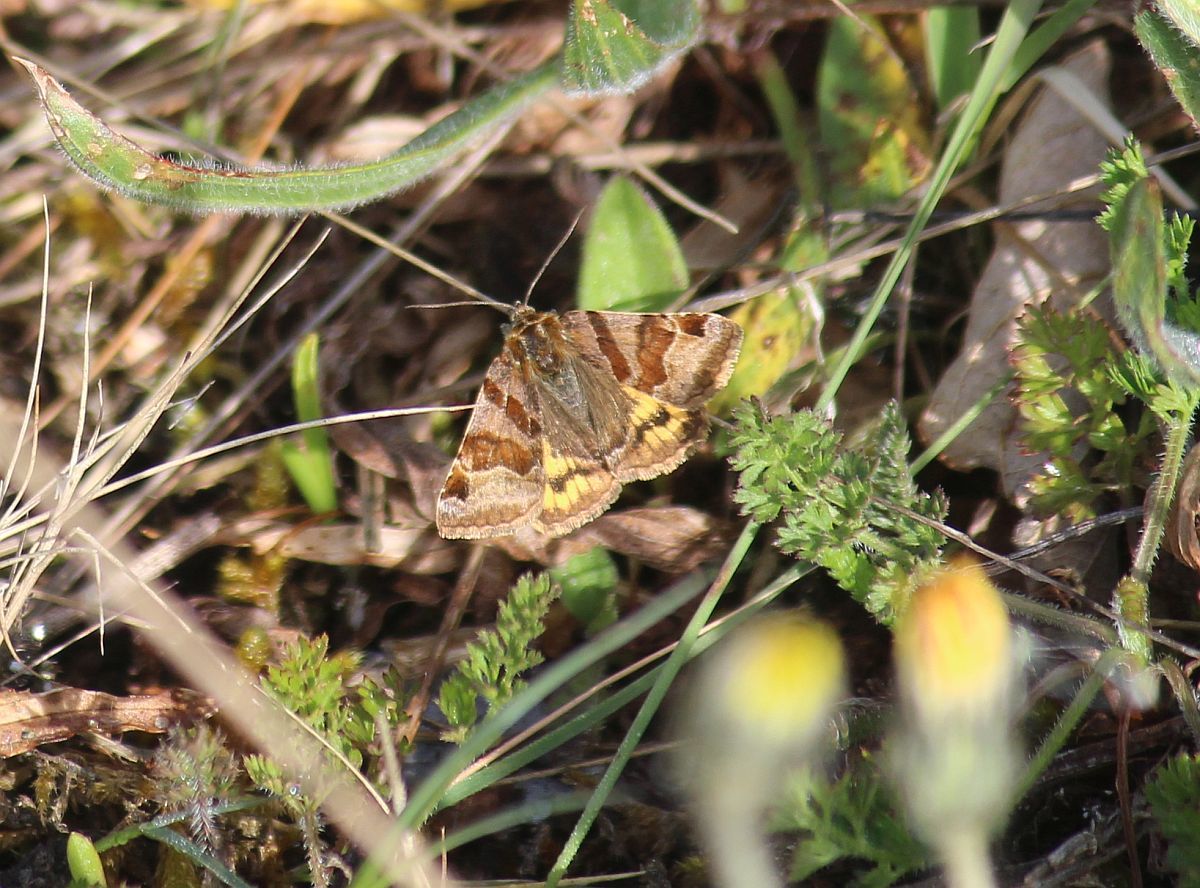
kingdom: Animalia
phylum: Arthropoda
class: Insecta
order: Lepidoptera
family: Erebidae
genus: Euclidia
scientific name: Euclidia glyphica
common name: Burnet companion
